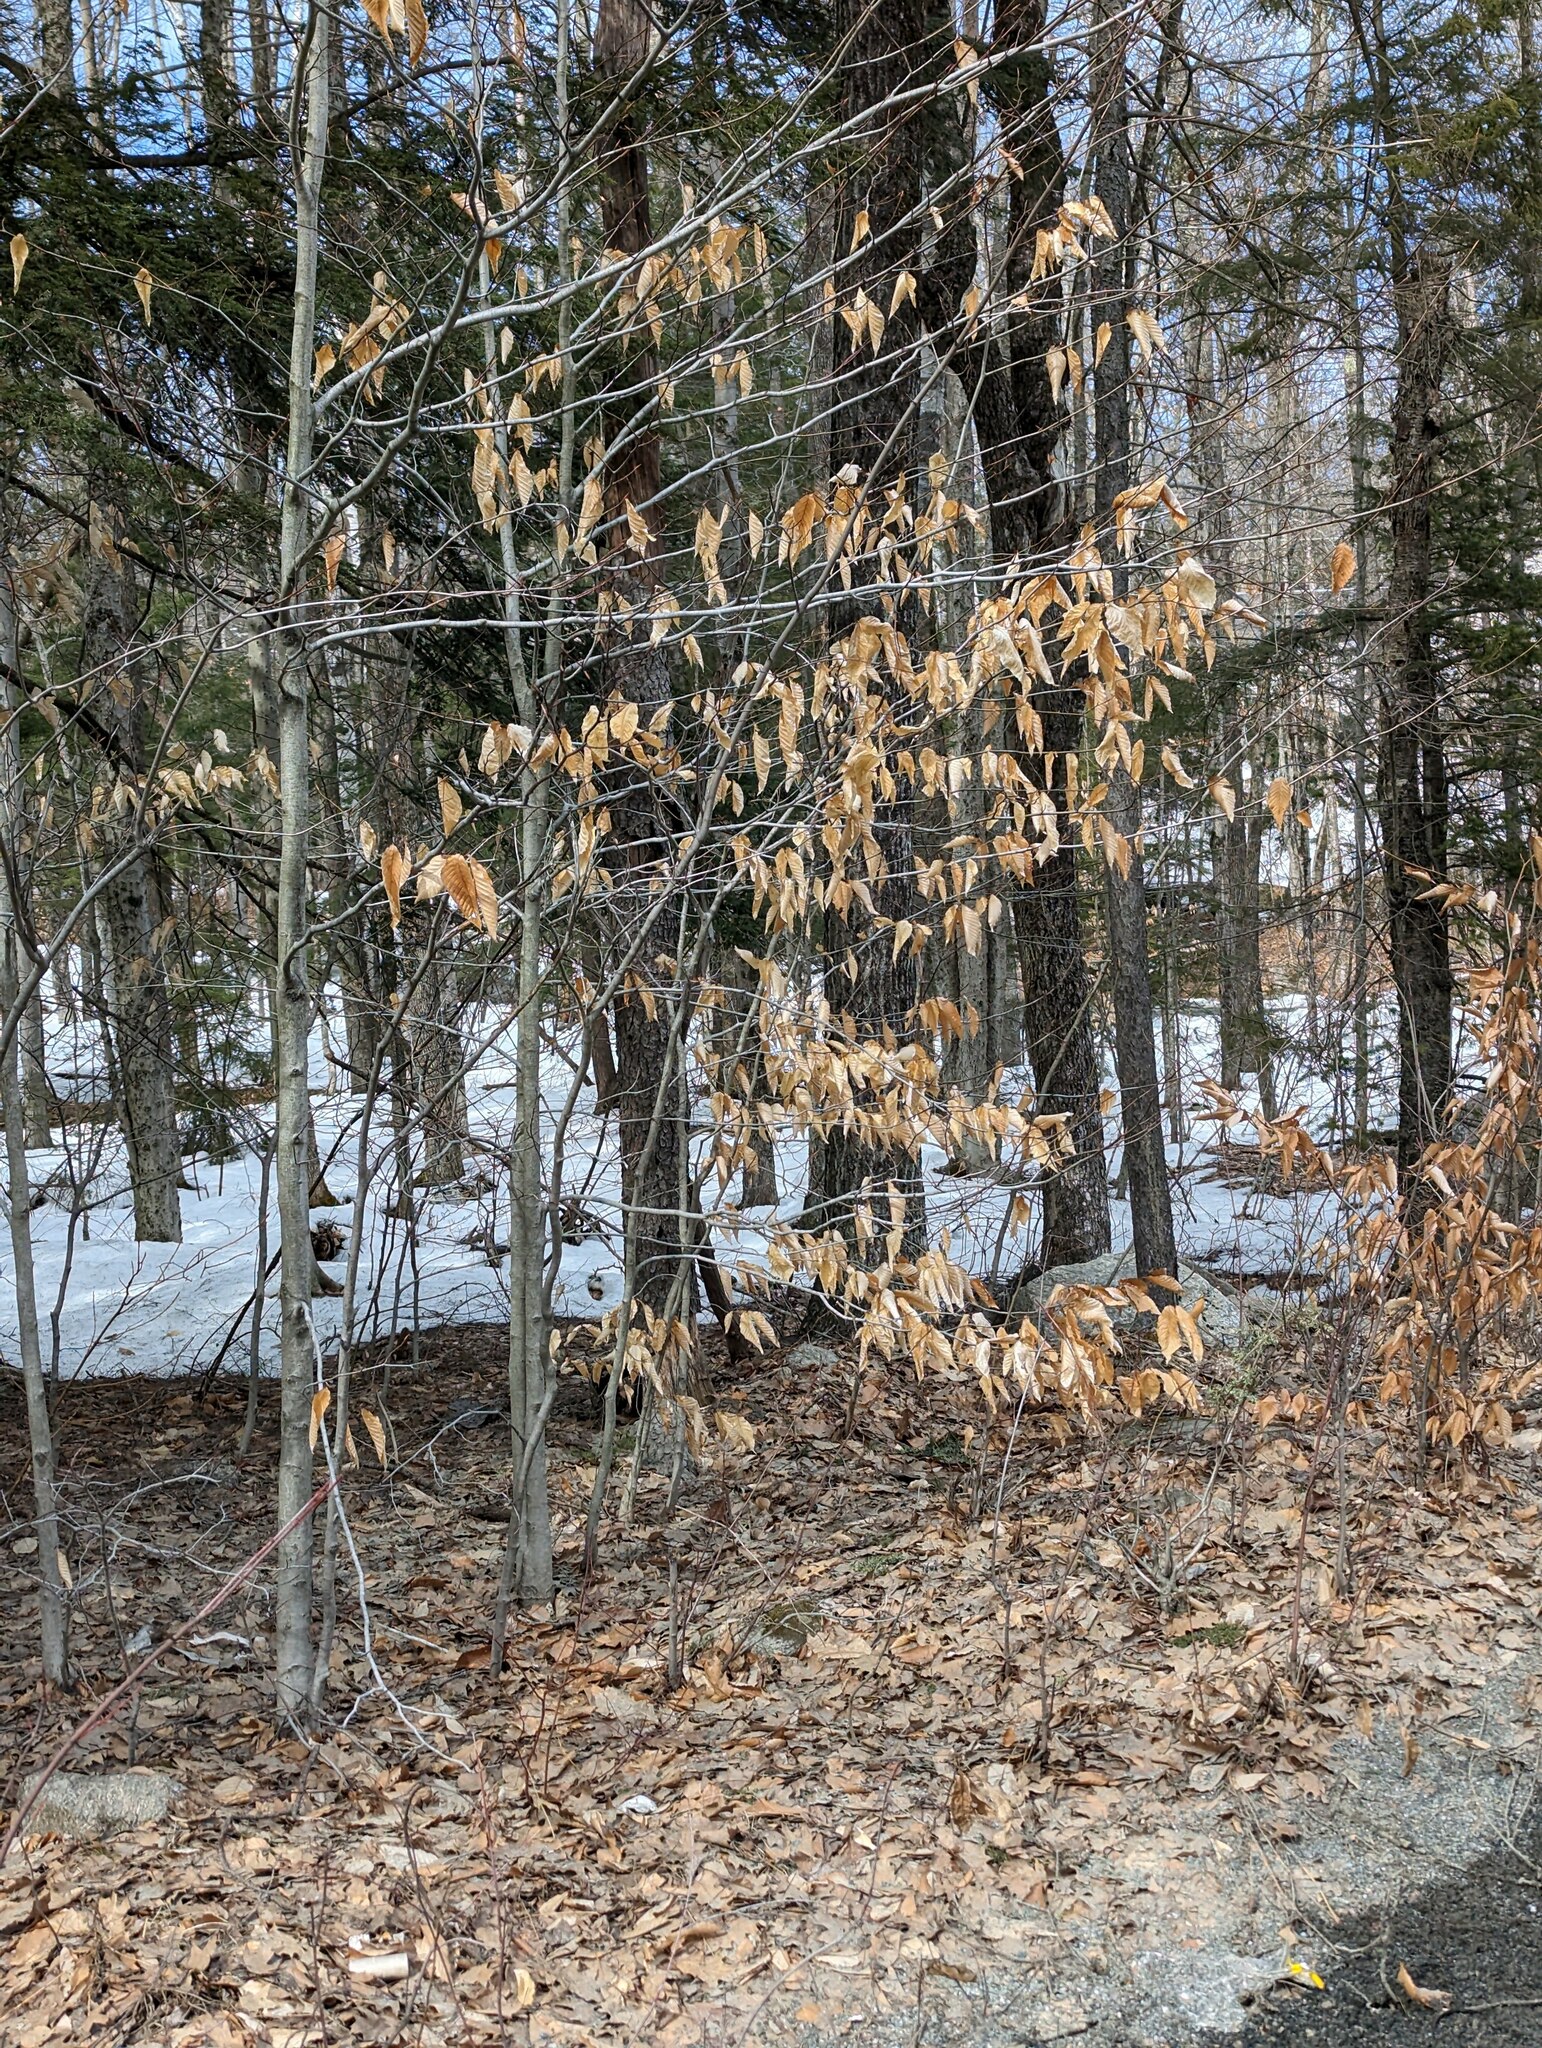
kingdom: Plantae
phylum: Tracheophyta
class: Magnoliopsida
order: Fagales
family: Fagaceae
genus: Fagus
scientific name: Fagus grandifolia
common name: American beech
